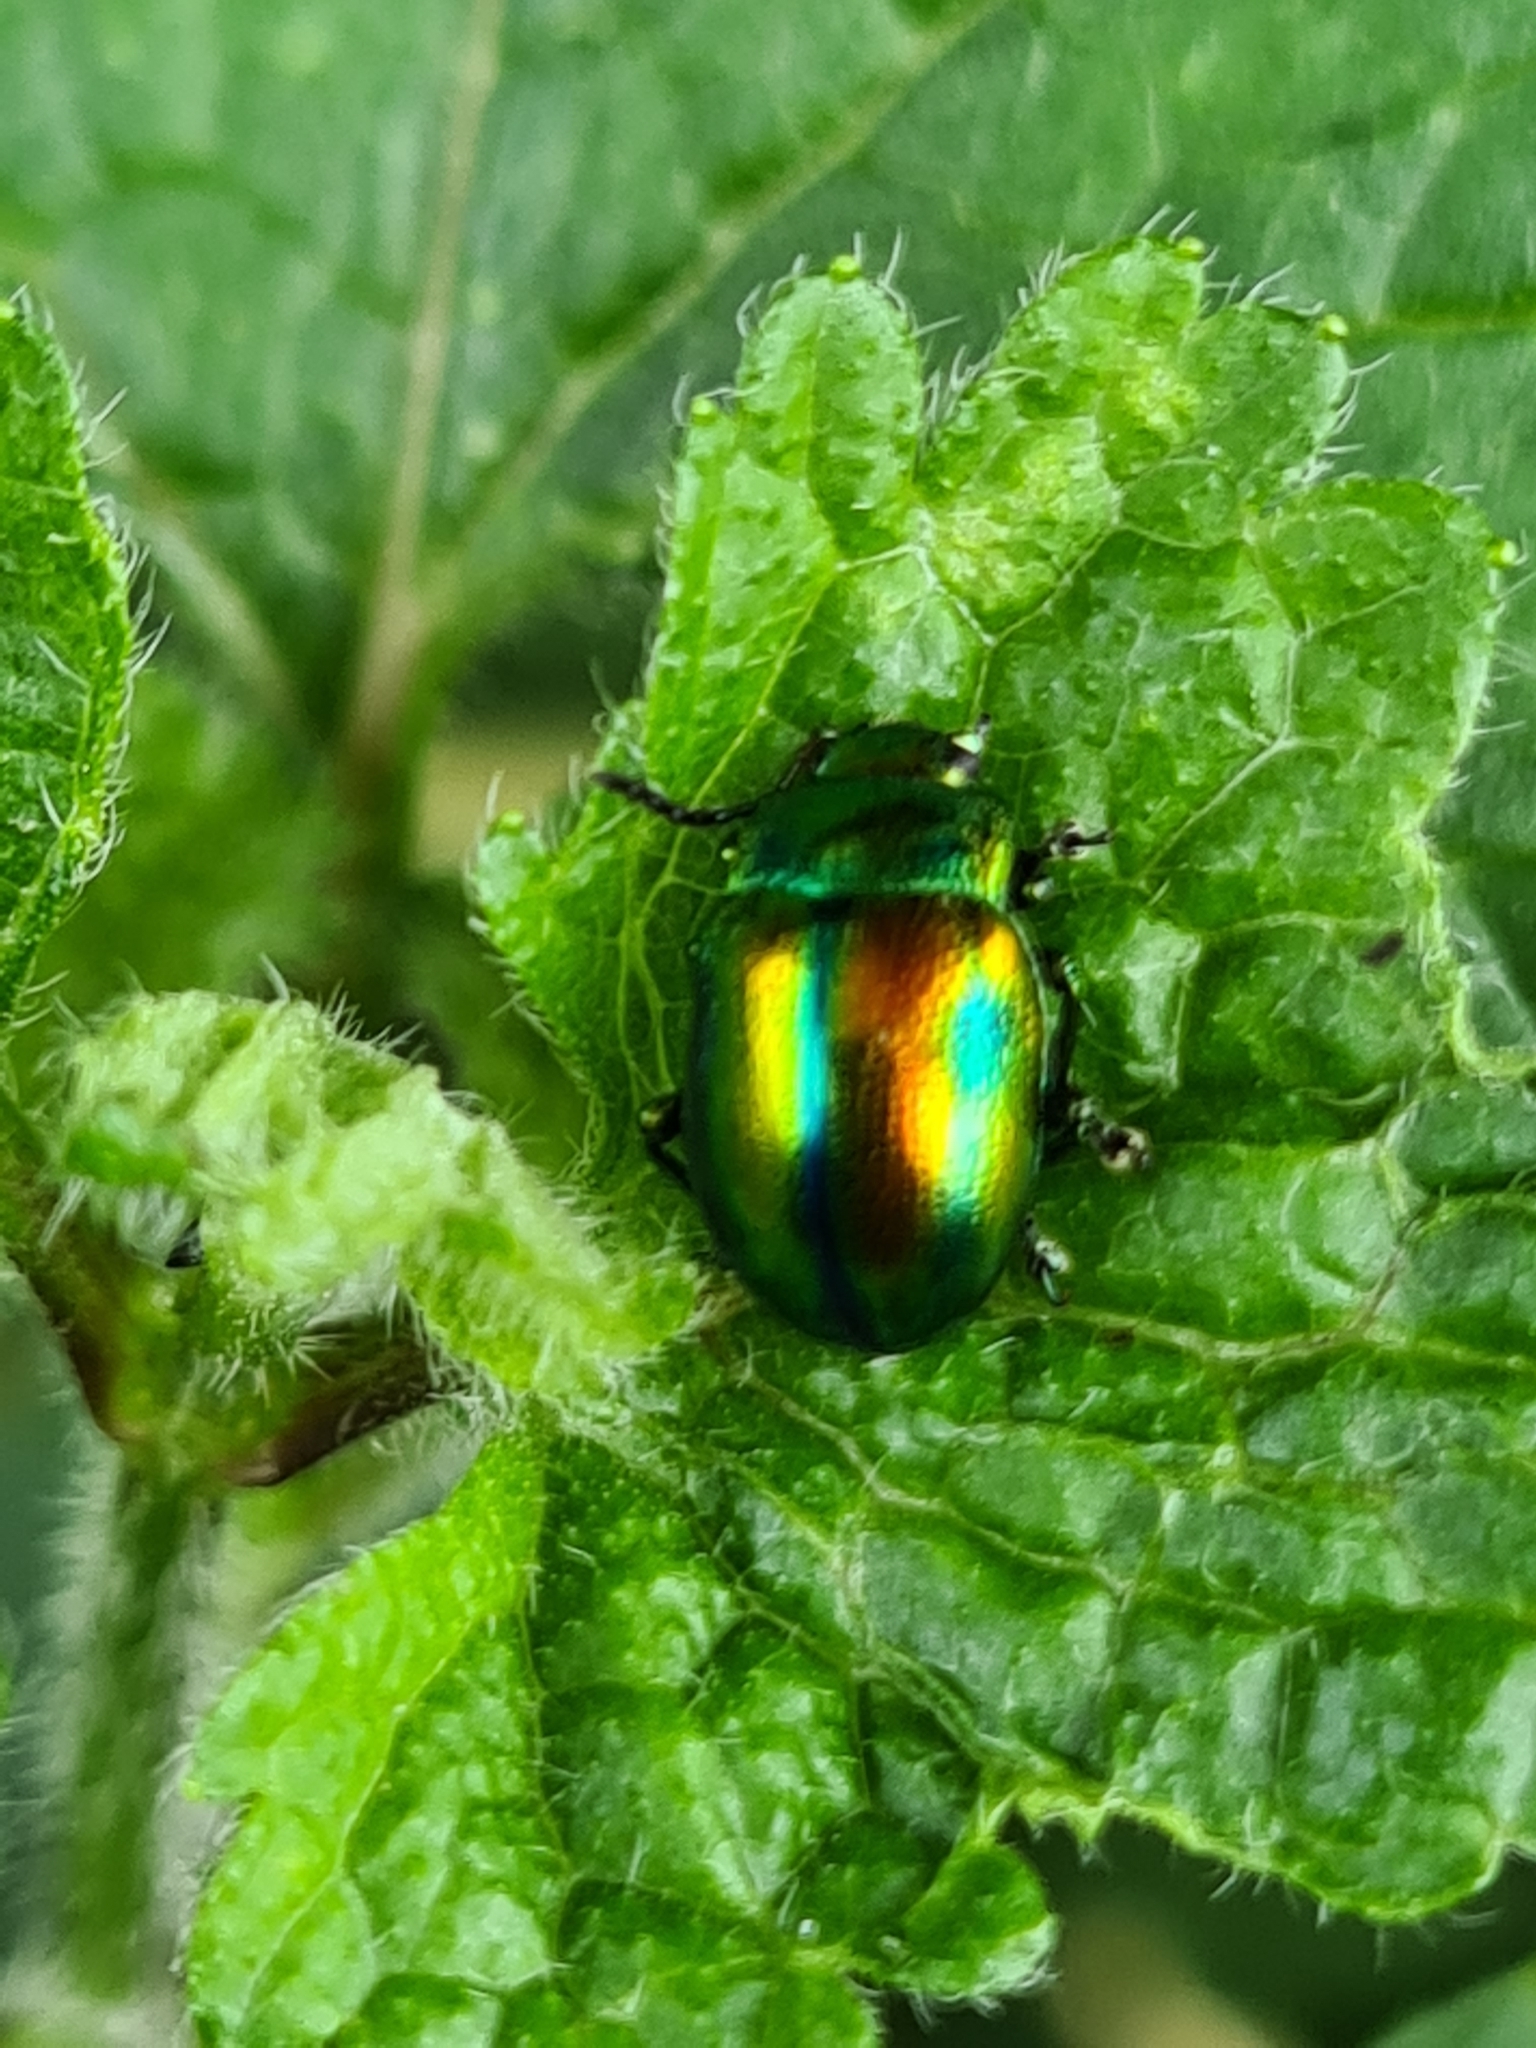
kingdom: Animalia
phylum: Arthropoda
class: Insecta
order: Coleoptera
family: Chrysomelidae
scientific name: Chrysomelidae
